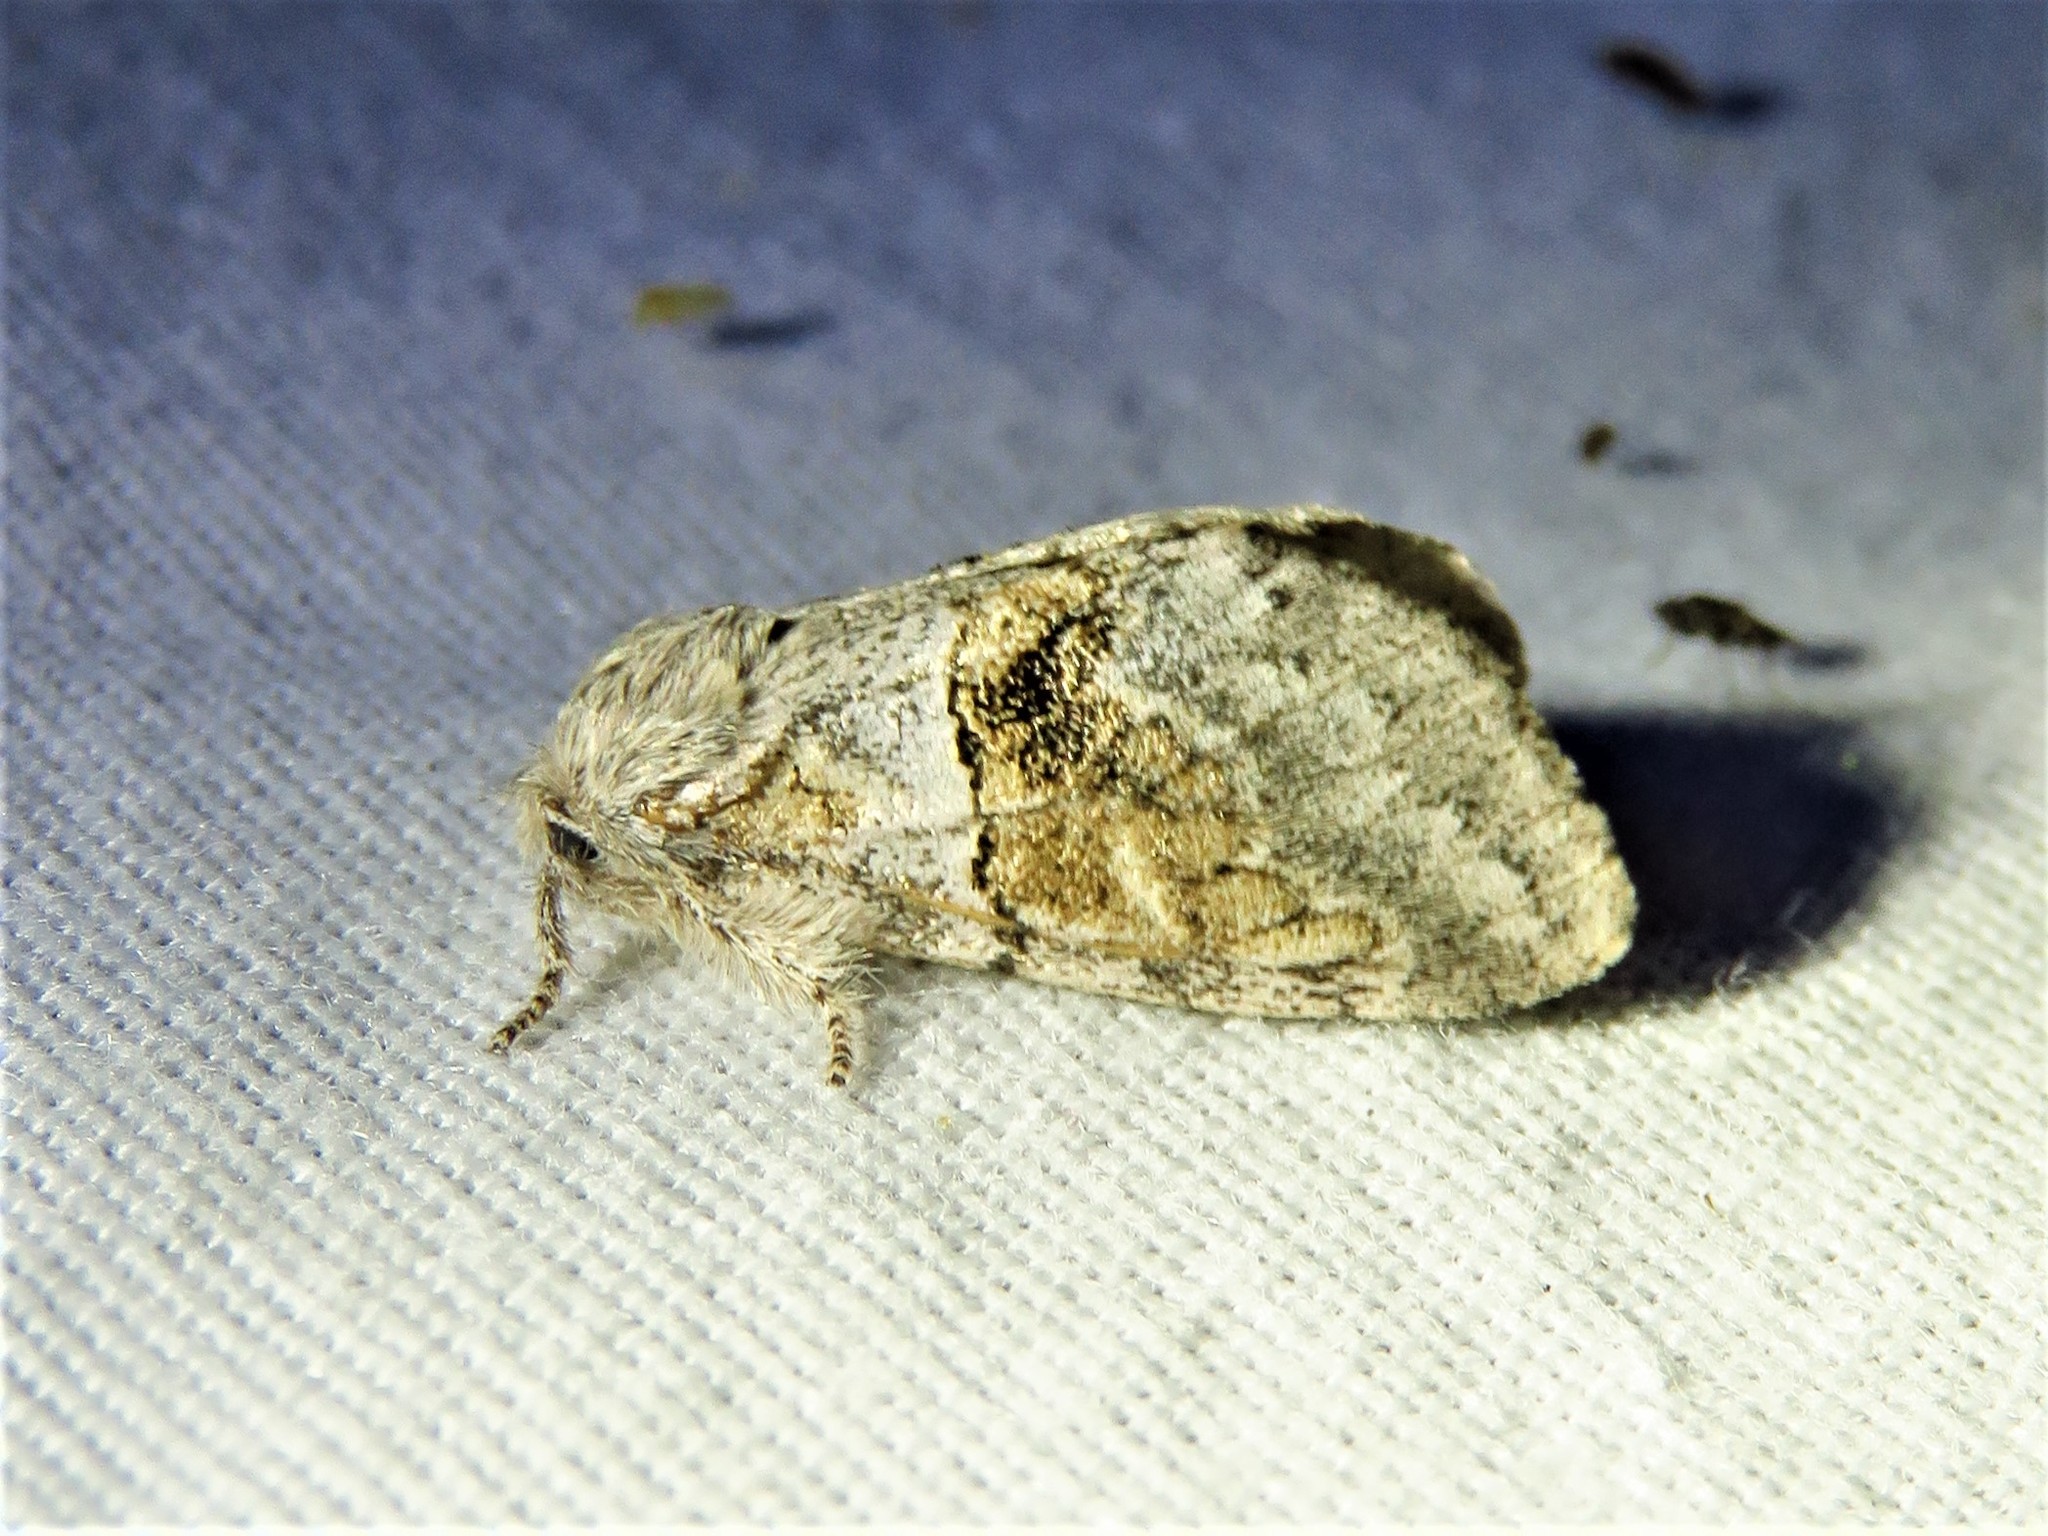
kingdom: Animalia
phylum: Arthropoda
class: Insecta
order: Lepidoptera
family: Notodontidae
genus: Gluphisia
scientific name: Gluphisia septentrionis
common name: Common gluphisia
